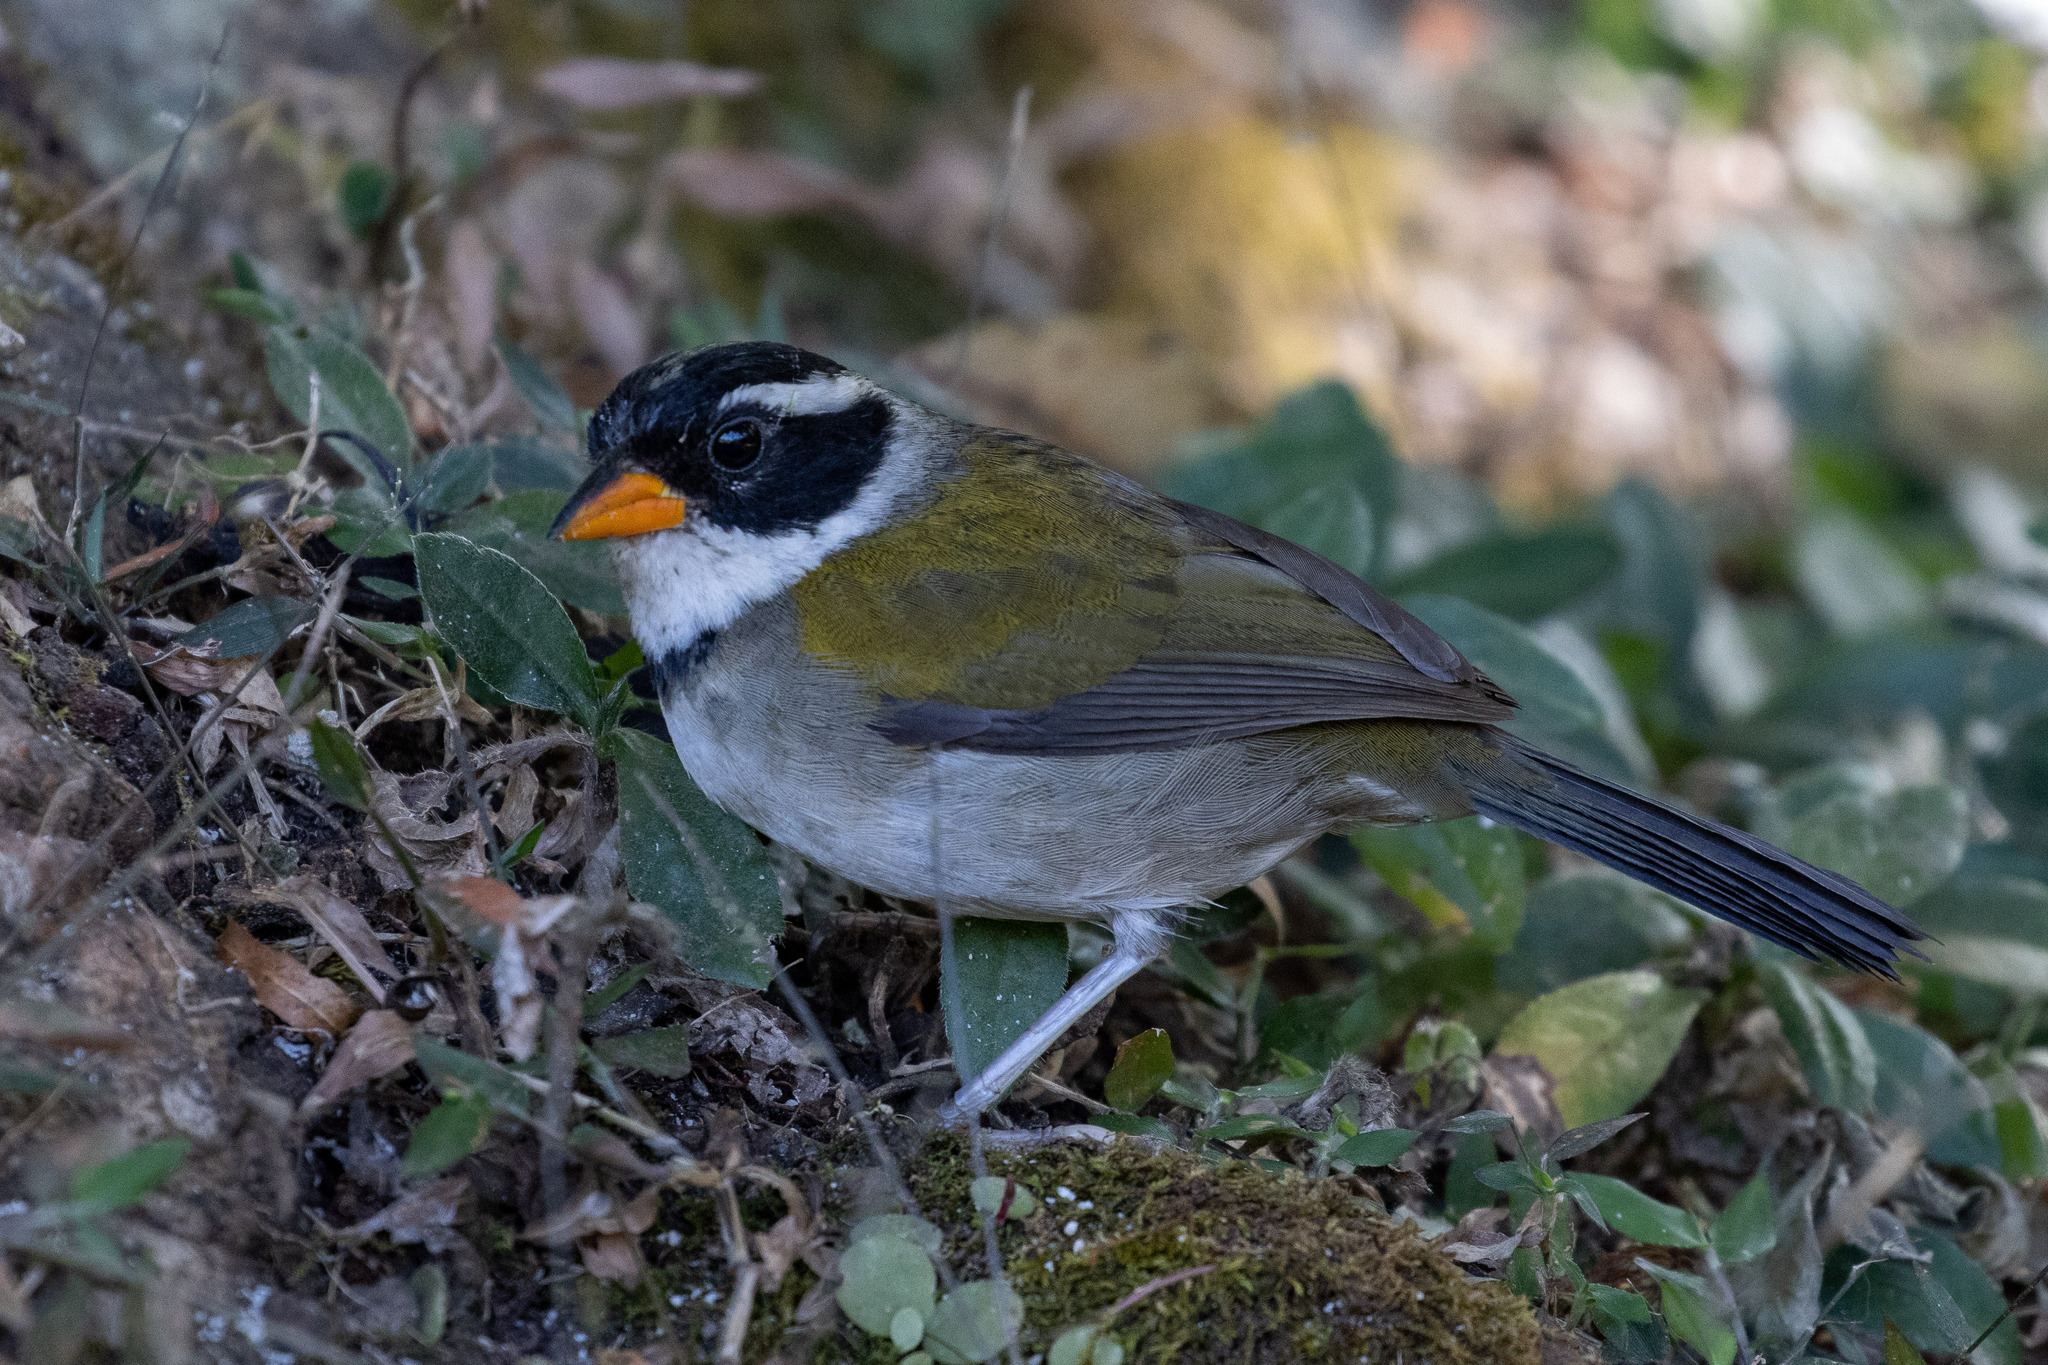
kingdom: Animalia
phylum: Chordata
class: Aves
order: Passeriformes
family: Passerellidae
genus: Arremon
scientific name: Arremon flavirostris
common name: Saffron-billed sparrow
